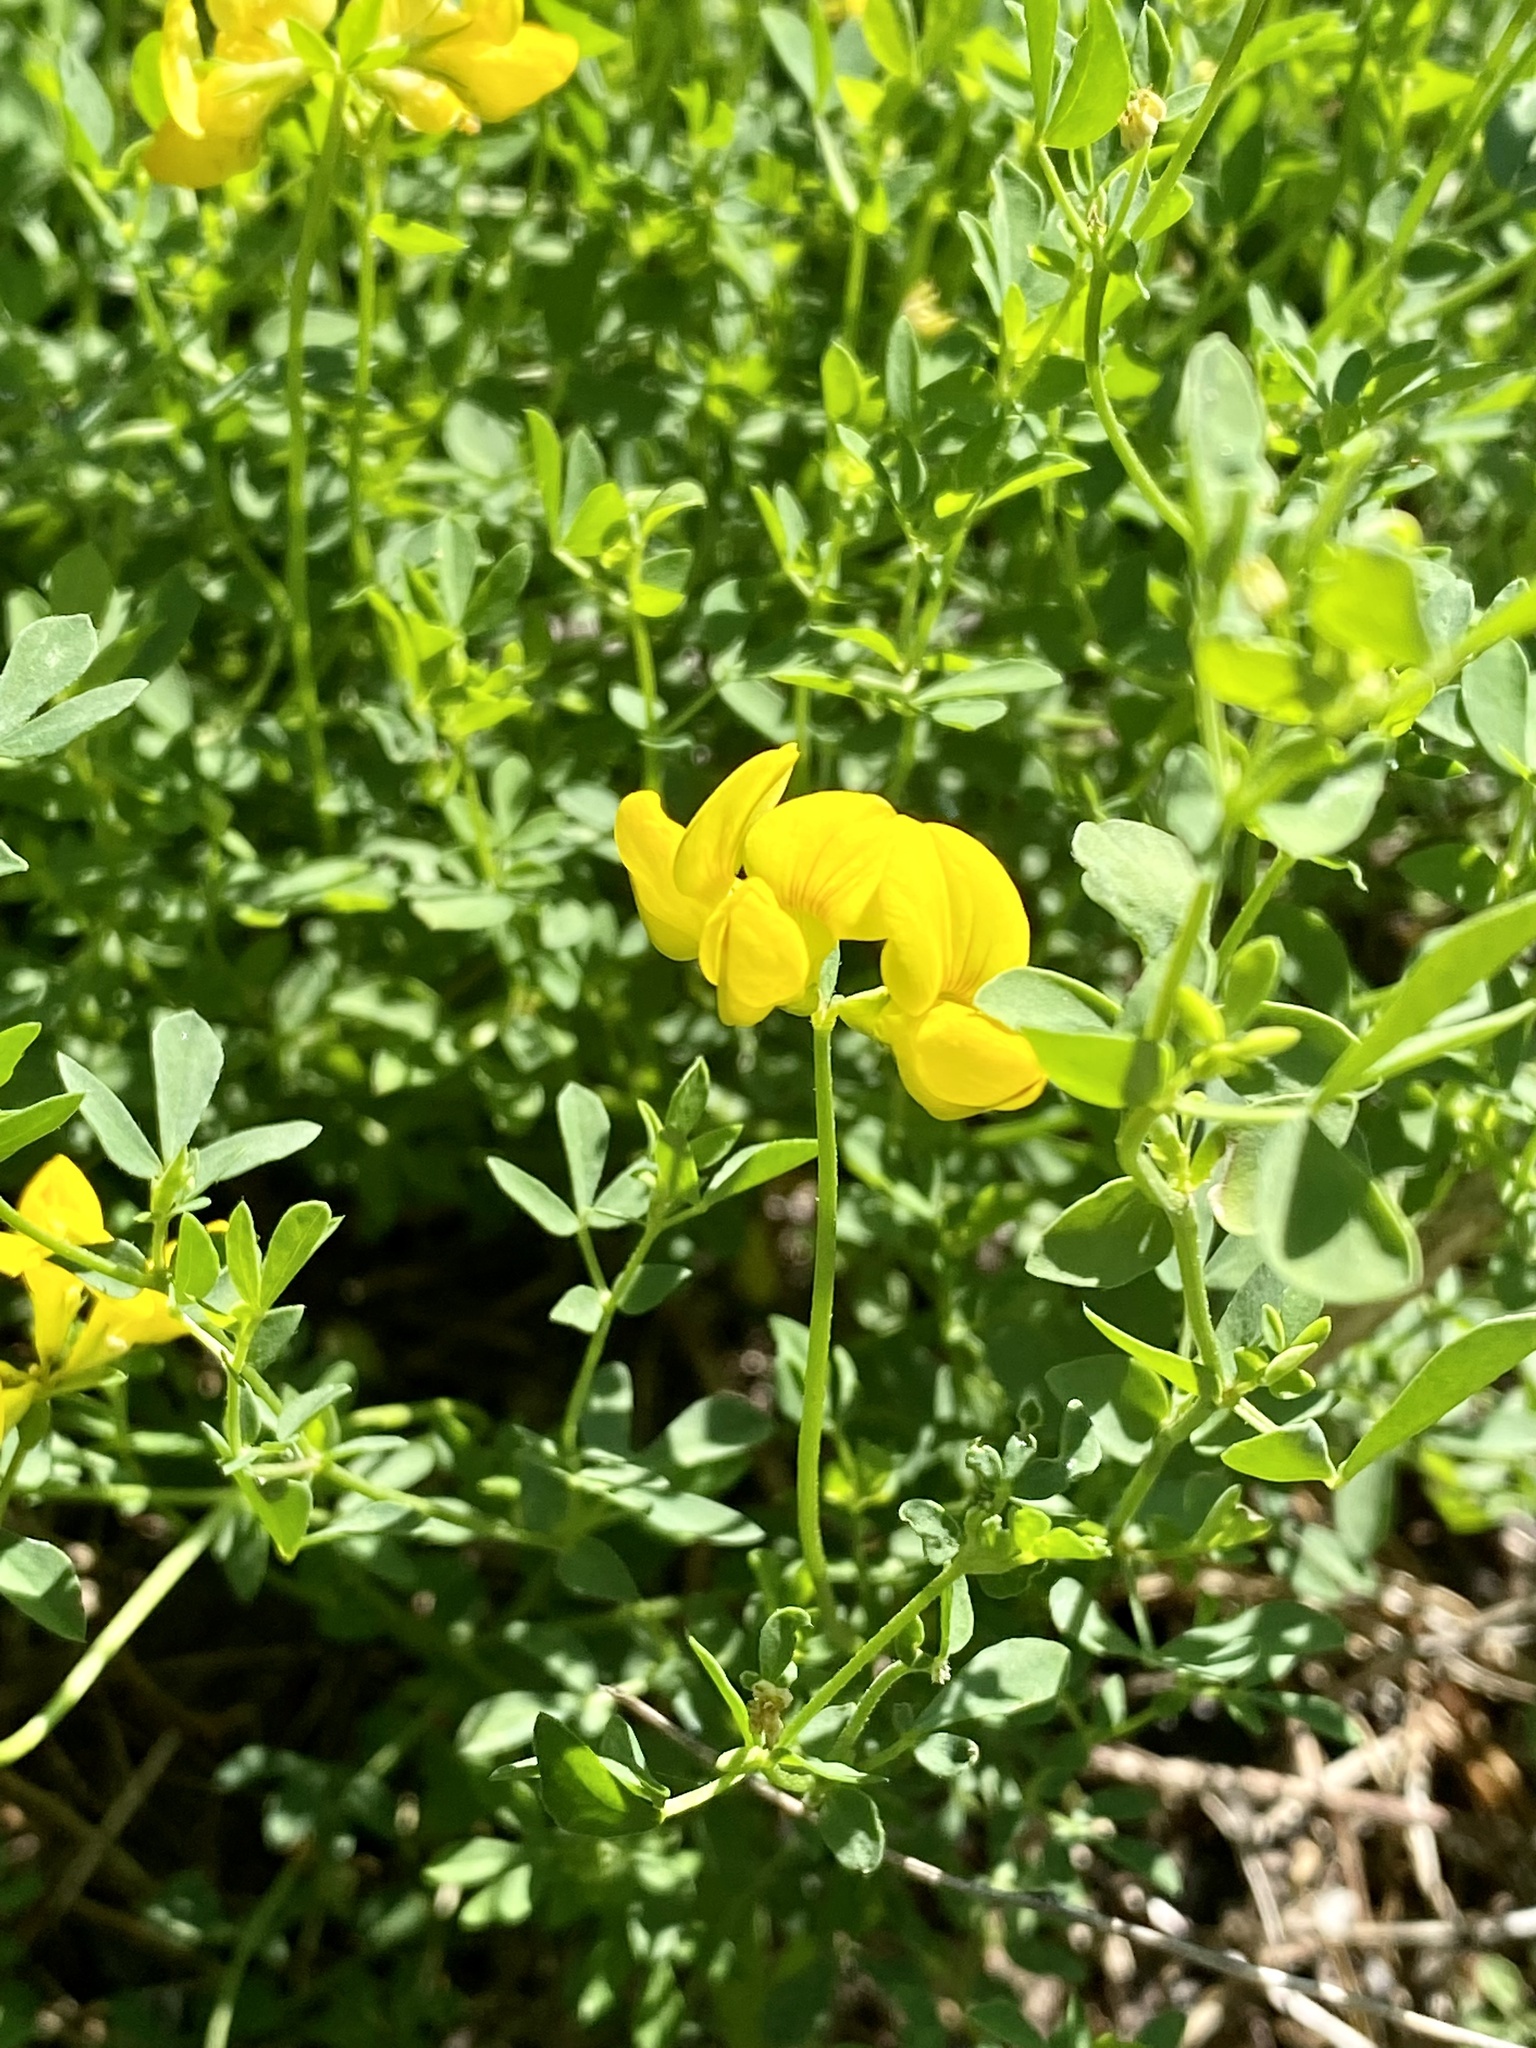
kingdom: Plantae
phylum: Tracheophyta
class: Magnoliopsida
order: Fabales
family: Fabaceae
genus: Lotus
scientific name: Lotus corniculatus
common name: Common bird's-foot-trefoil
